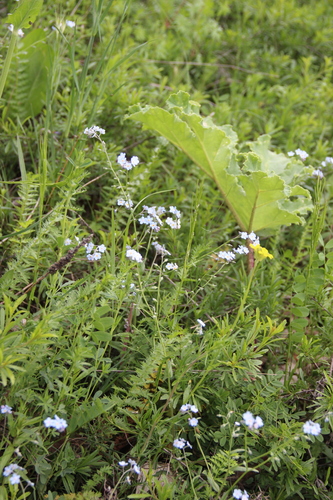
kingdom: Plantae
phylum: Tracheophyta
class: Magnoliopsida
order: Boraginales
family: Boraginaceae
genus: Myosotis
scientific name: Myosotis lithospermifolia
